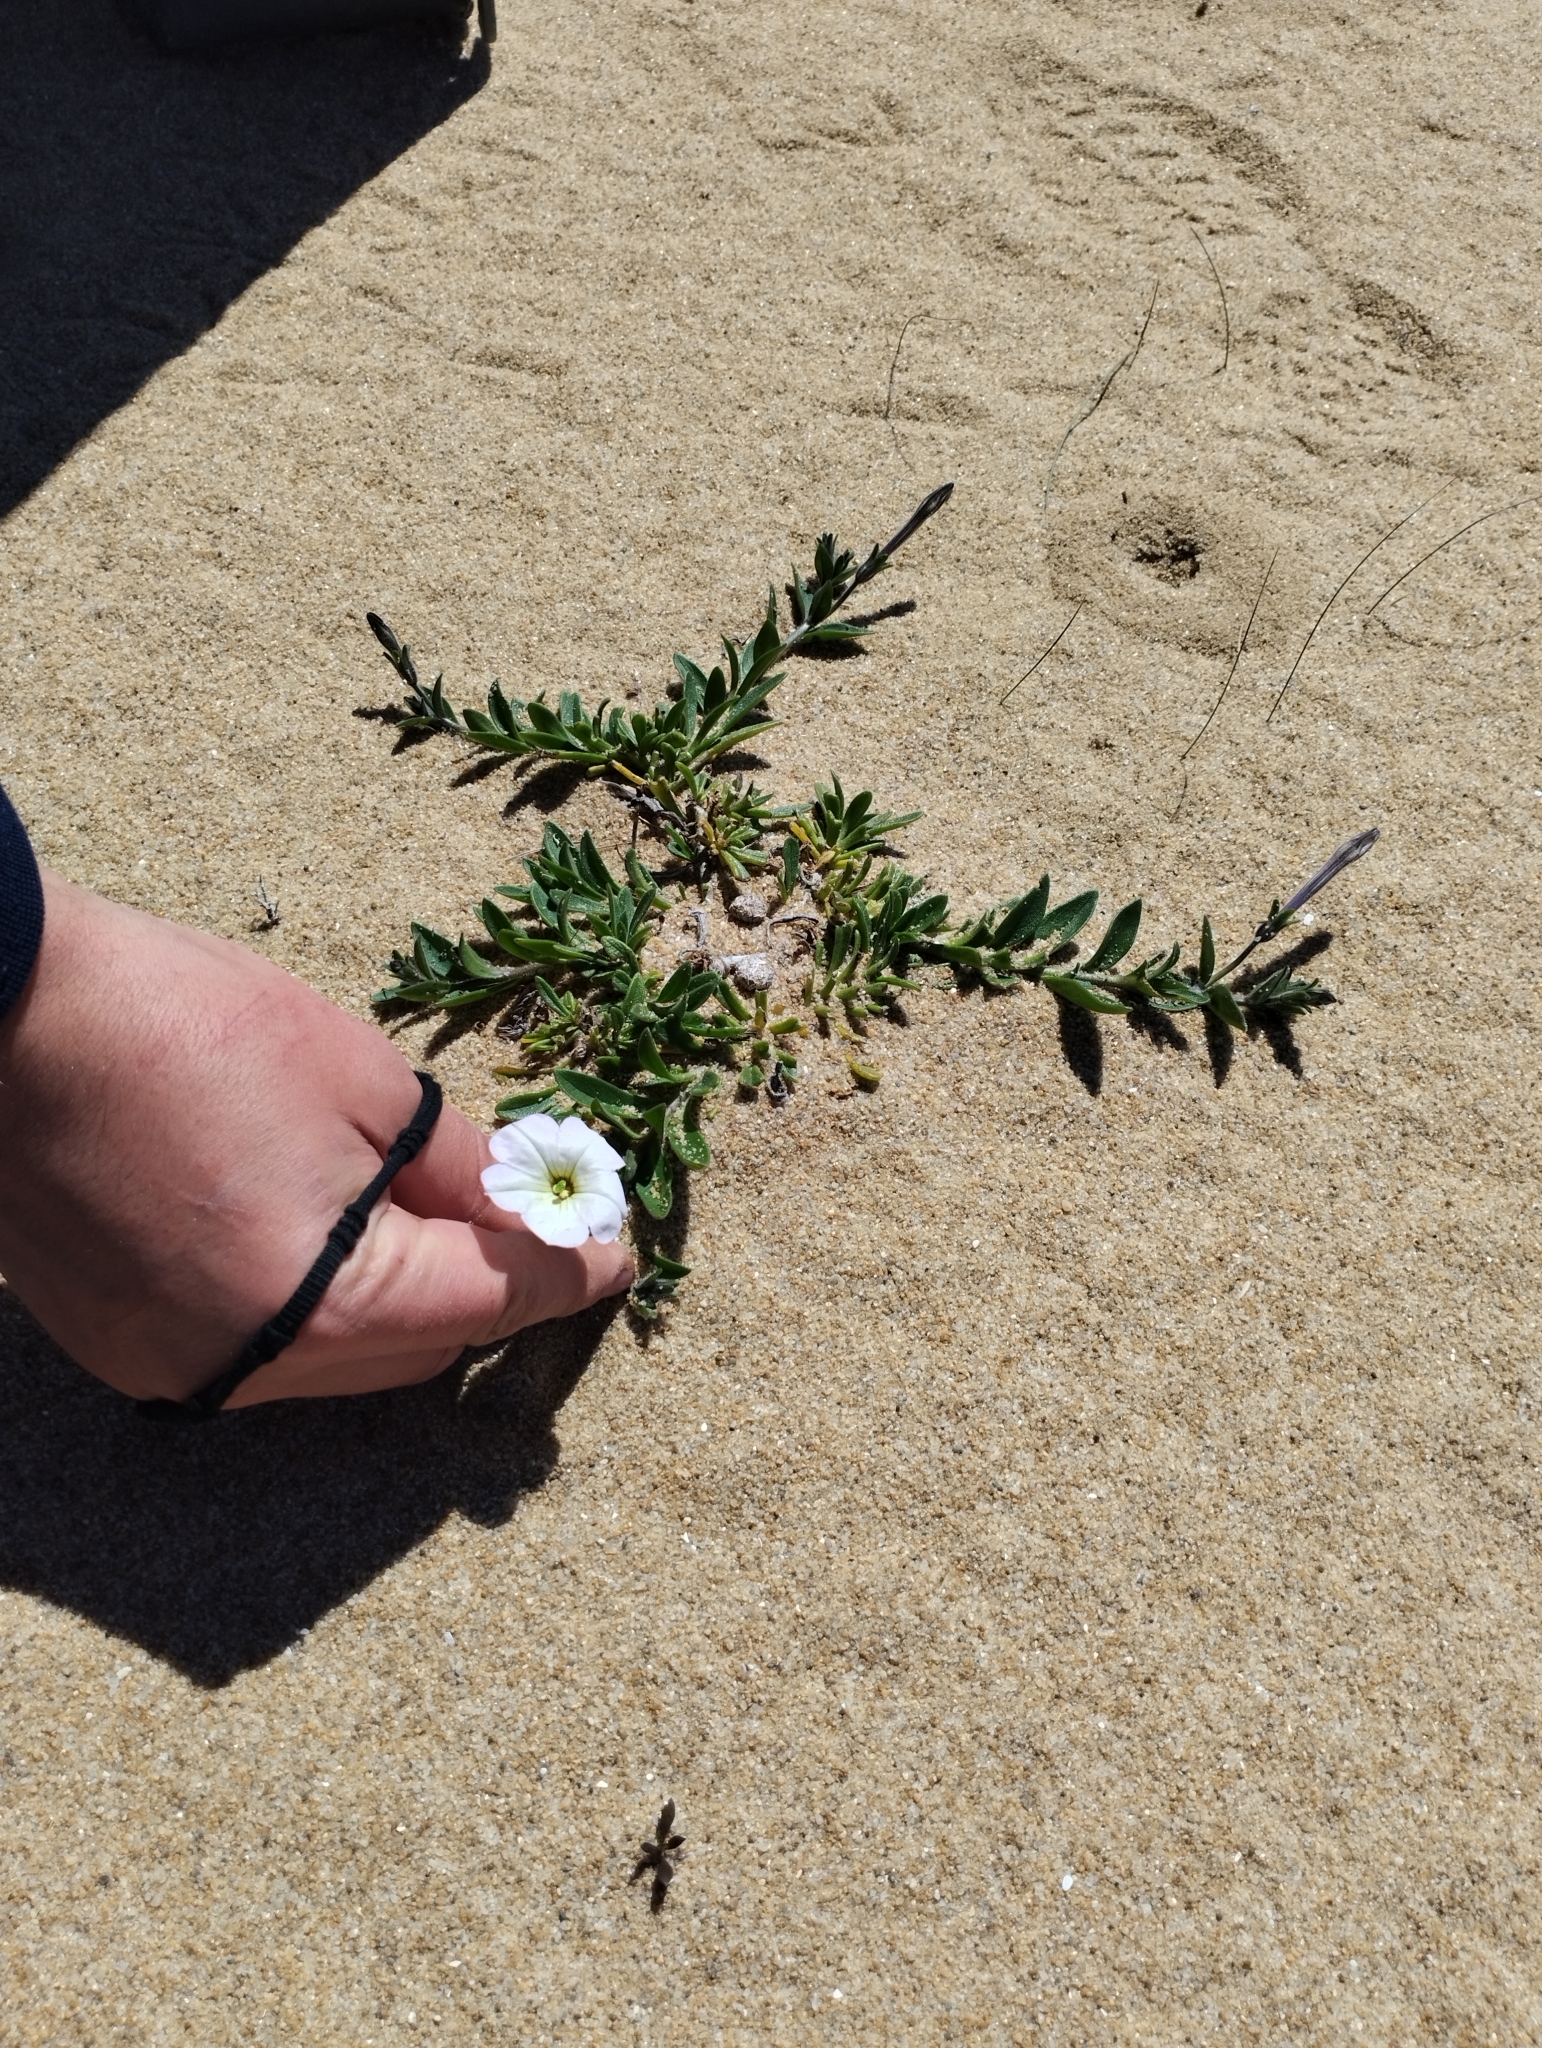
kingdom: Plantae
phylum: Tracheophyta
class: Magnoliopsida
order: Solanales
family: Solanaceae
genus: Petunia
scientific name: Petunia axillaris
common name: Large white petunia
